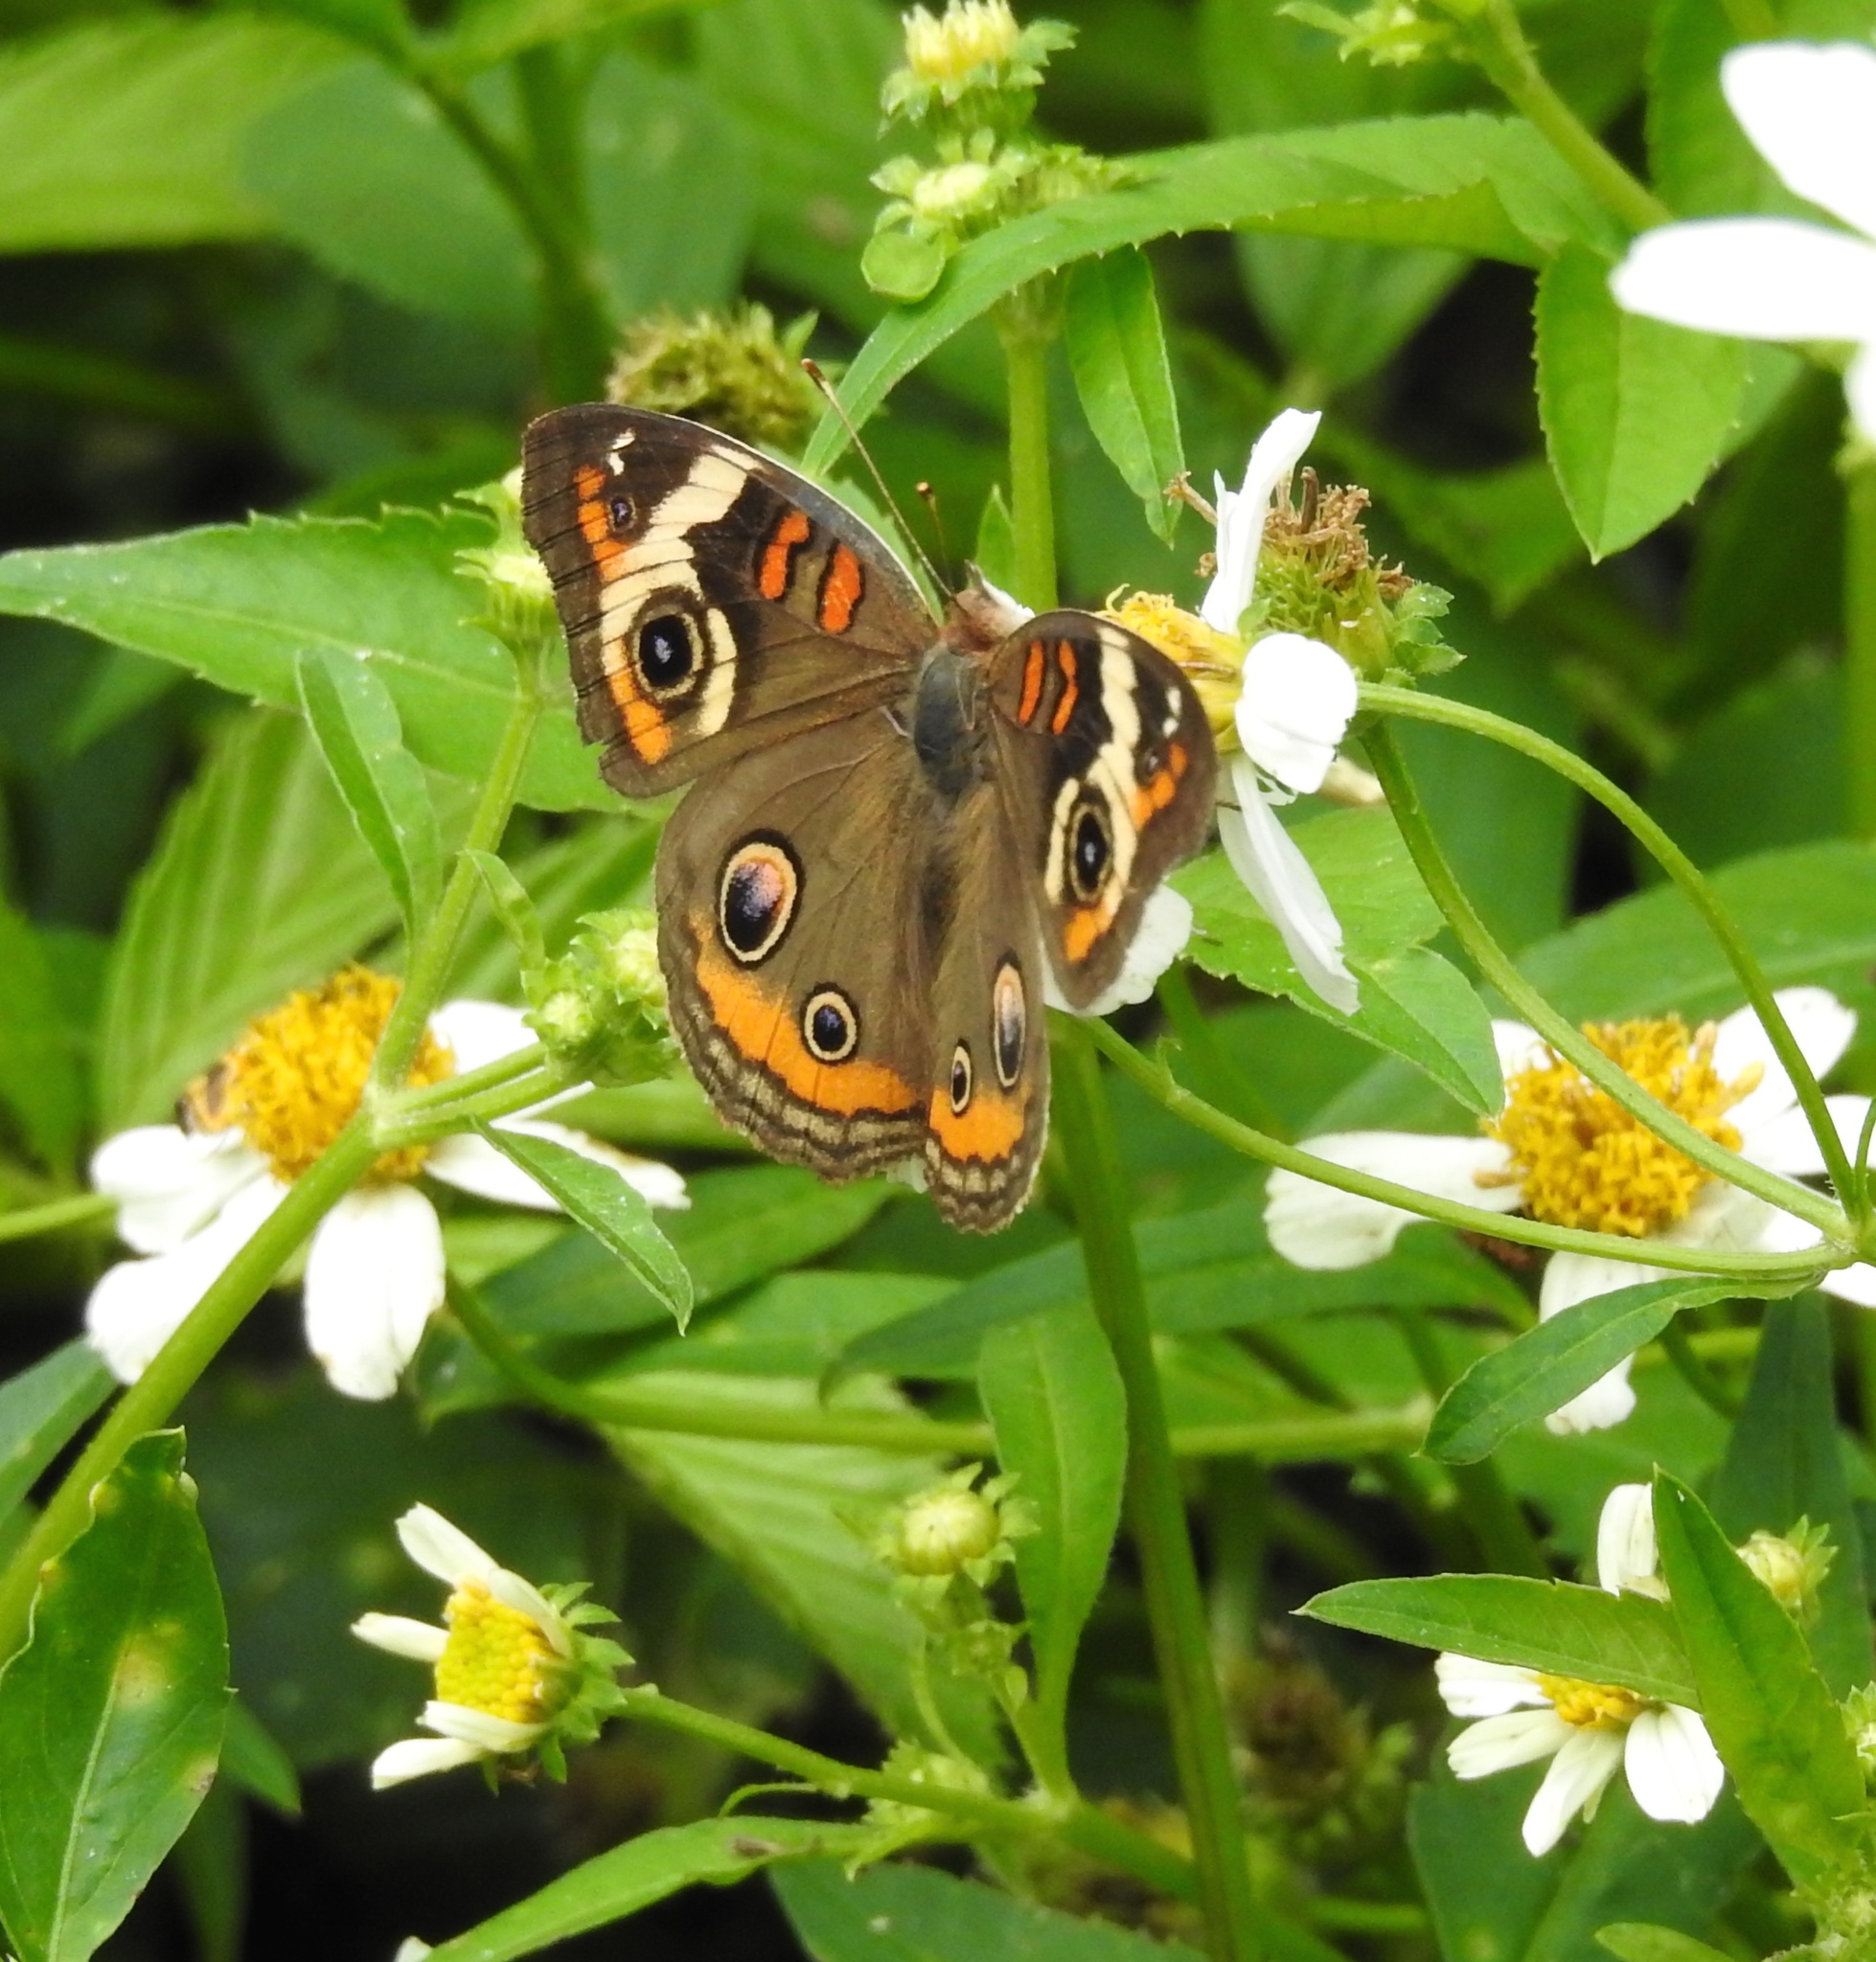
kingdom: Animalia
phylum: Arthropoda
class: Insecta
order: Lepidoptera
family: Nymphalidae
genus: Junonia
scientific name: Junonia coenia
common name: Common buckeye
